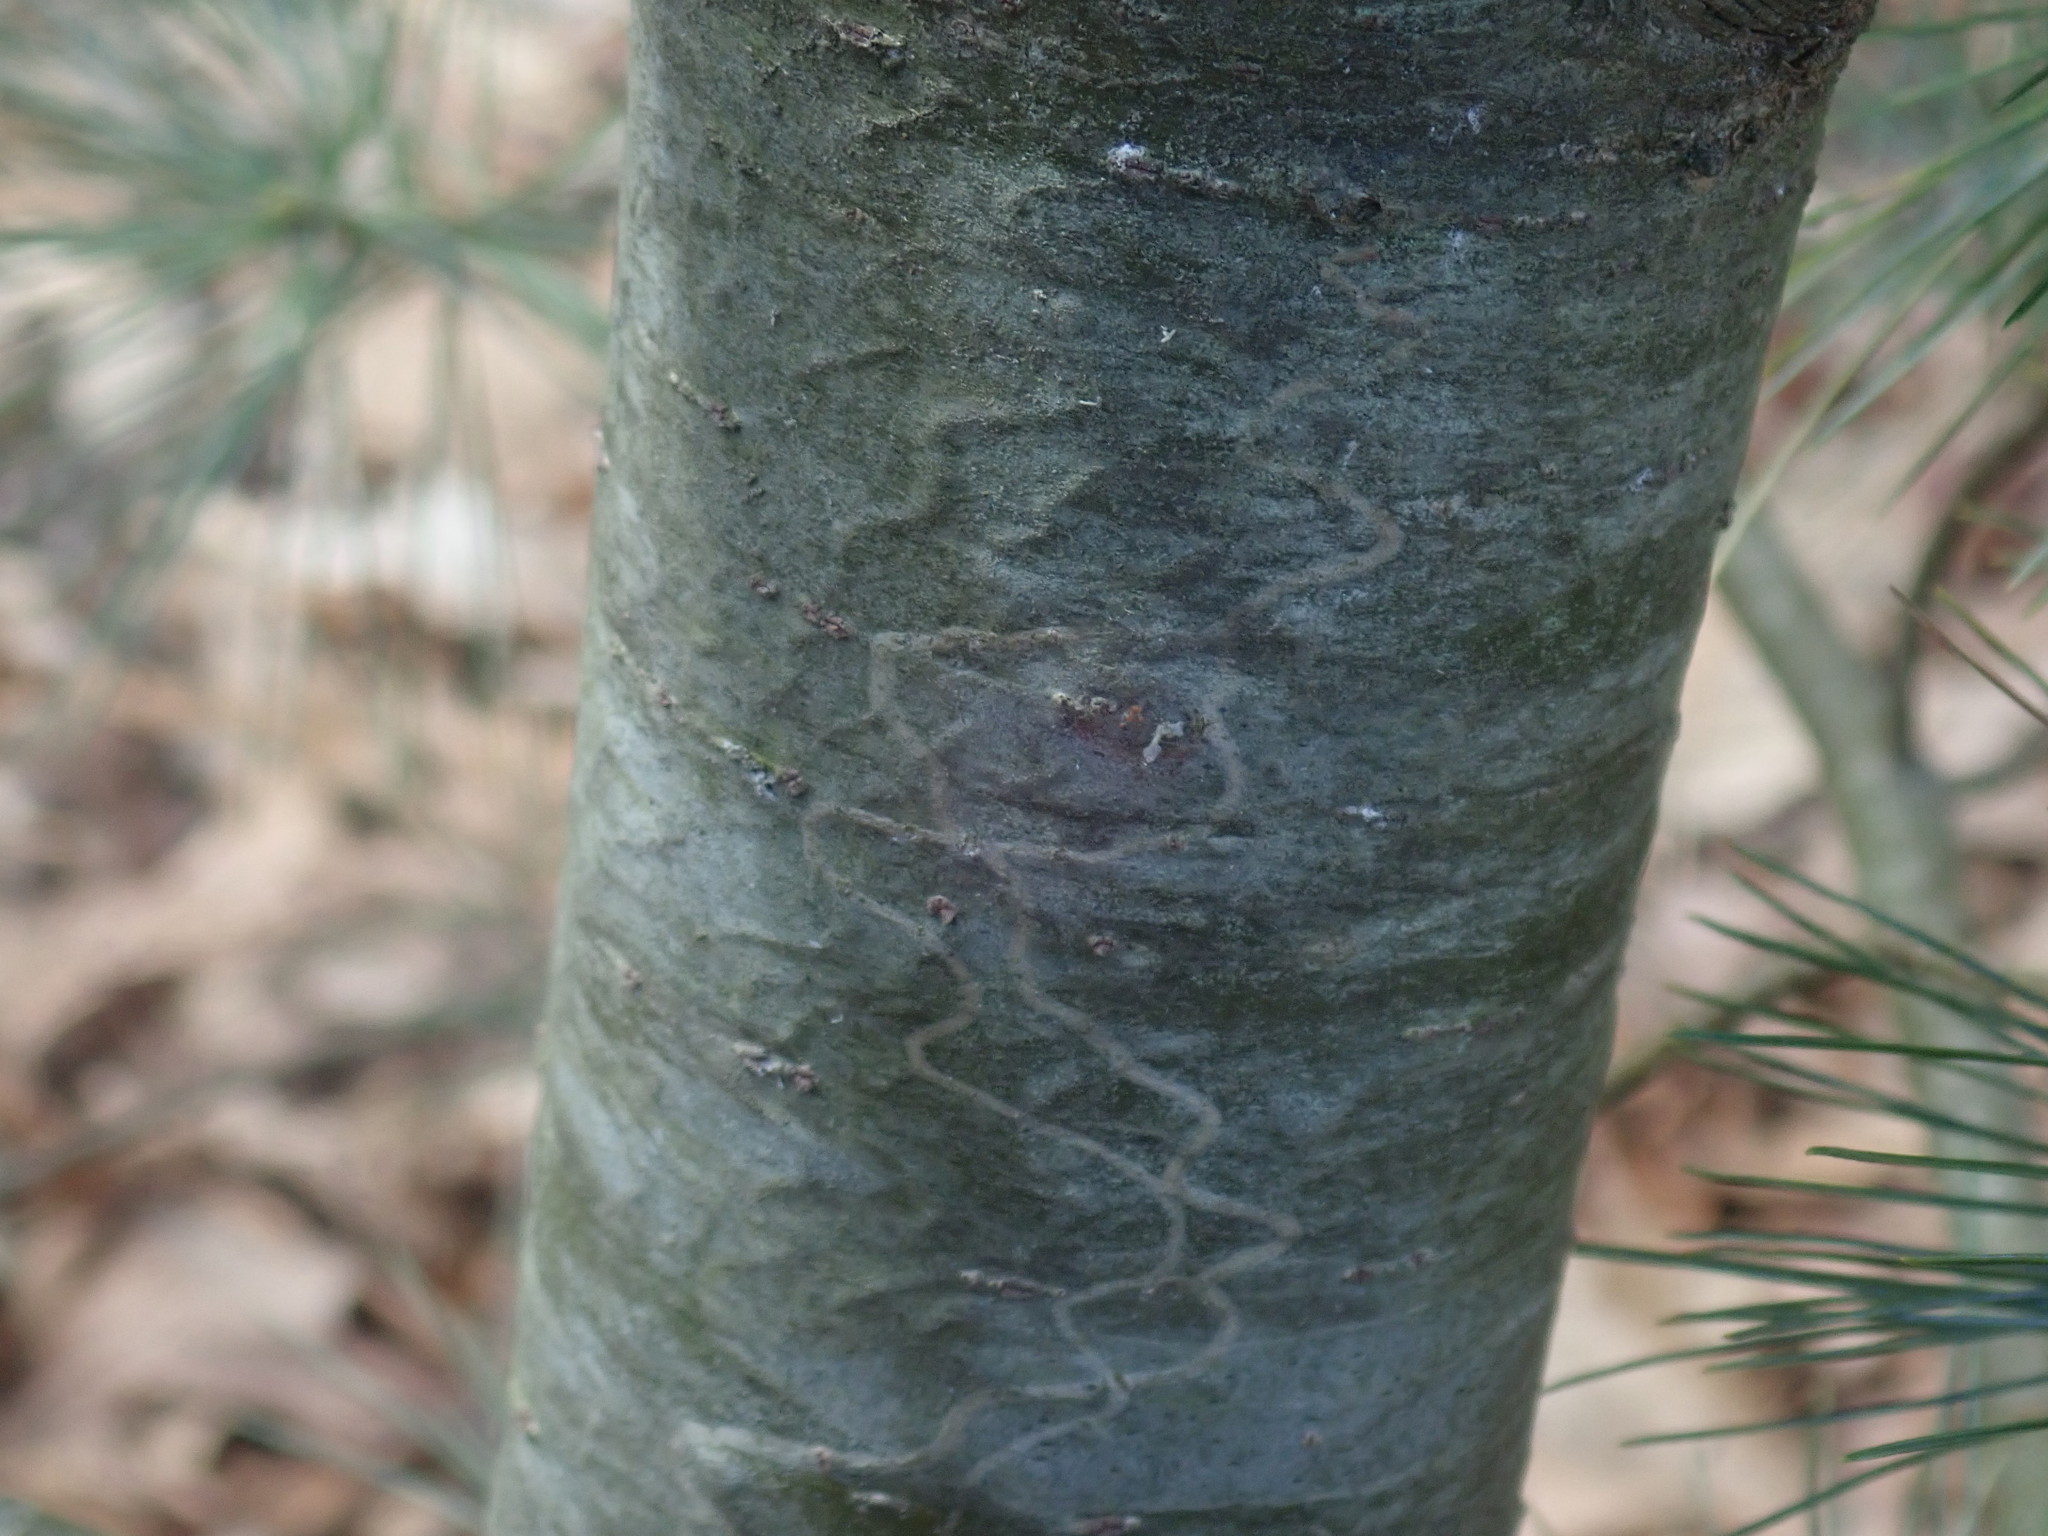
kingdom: Animalia
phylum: Arthropoda
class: Insecta
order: Lepidoptera
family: Gracillariidae
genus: Marmara
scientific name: Marmara fasciella
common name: White pine barkminer moth
